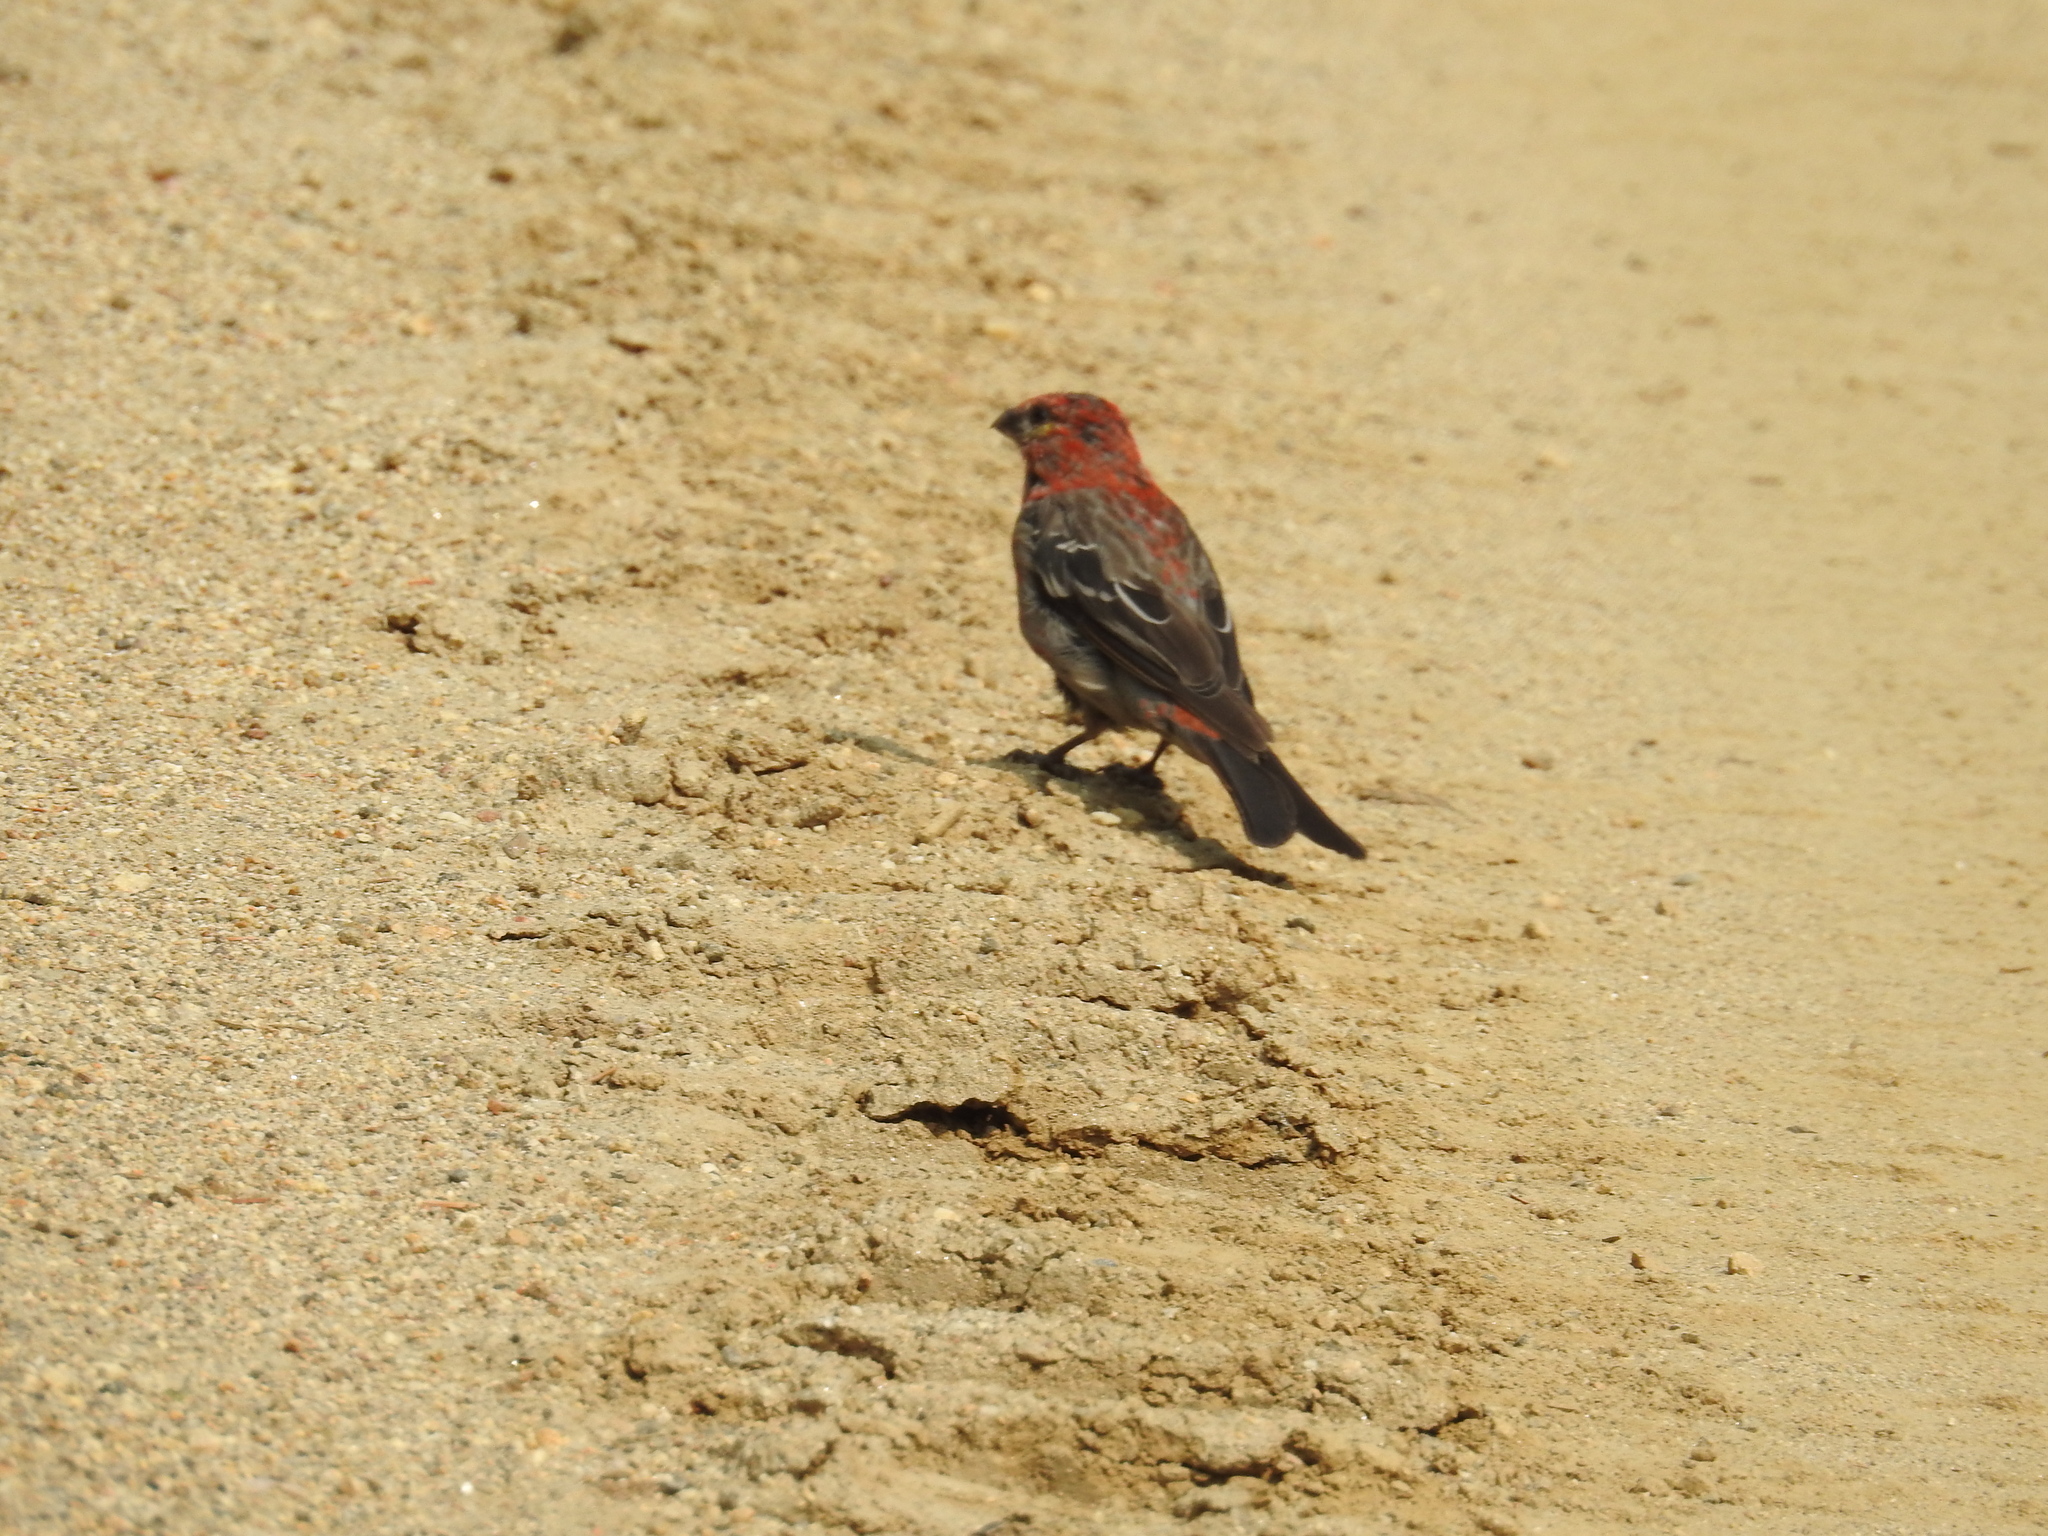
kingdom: Animalia
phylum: Chordata
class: Aves
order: Passeriformes
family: Fringillidae
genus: Pinicola
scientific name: Pinicola enucleator
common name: Pine grosbeak
